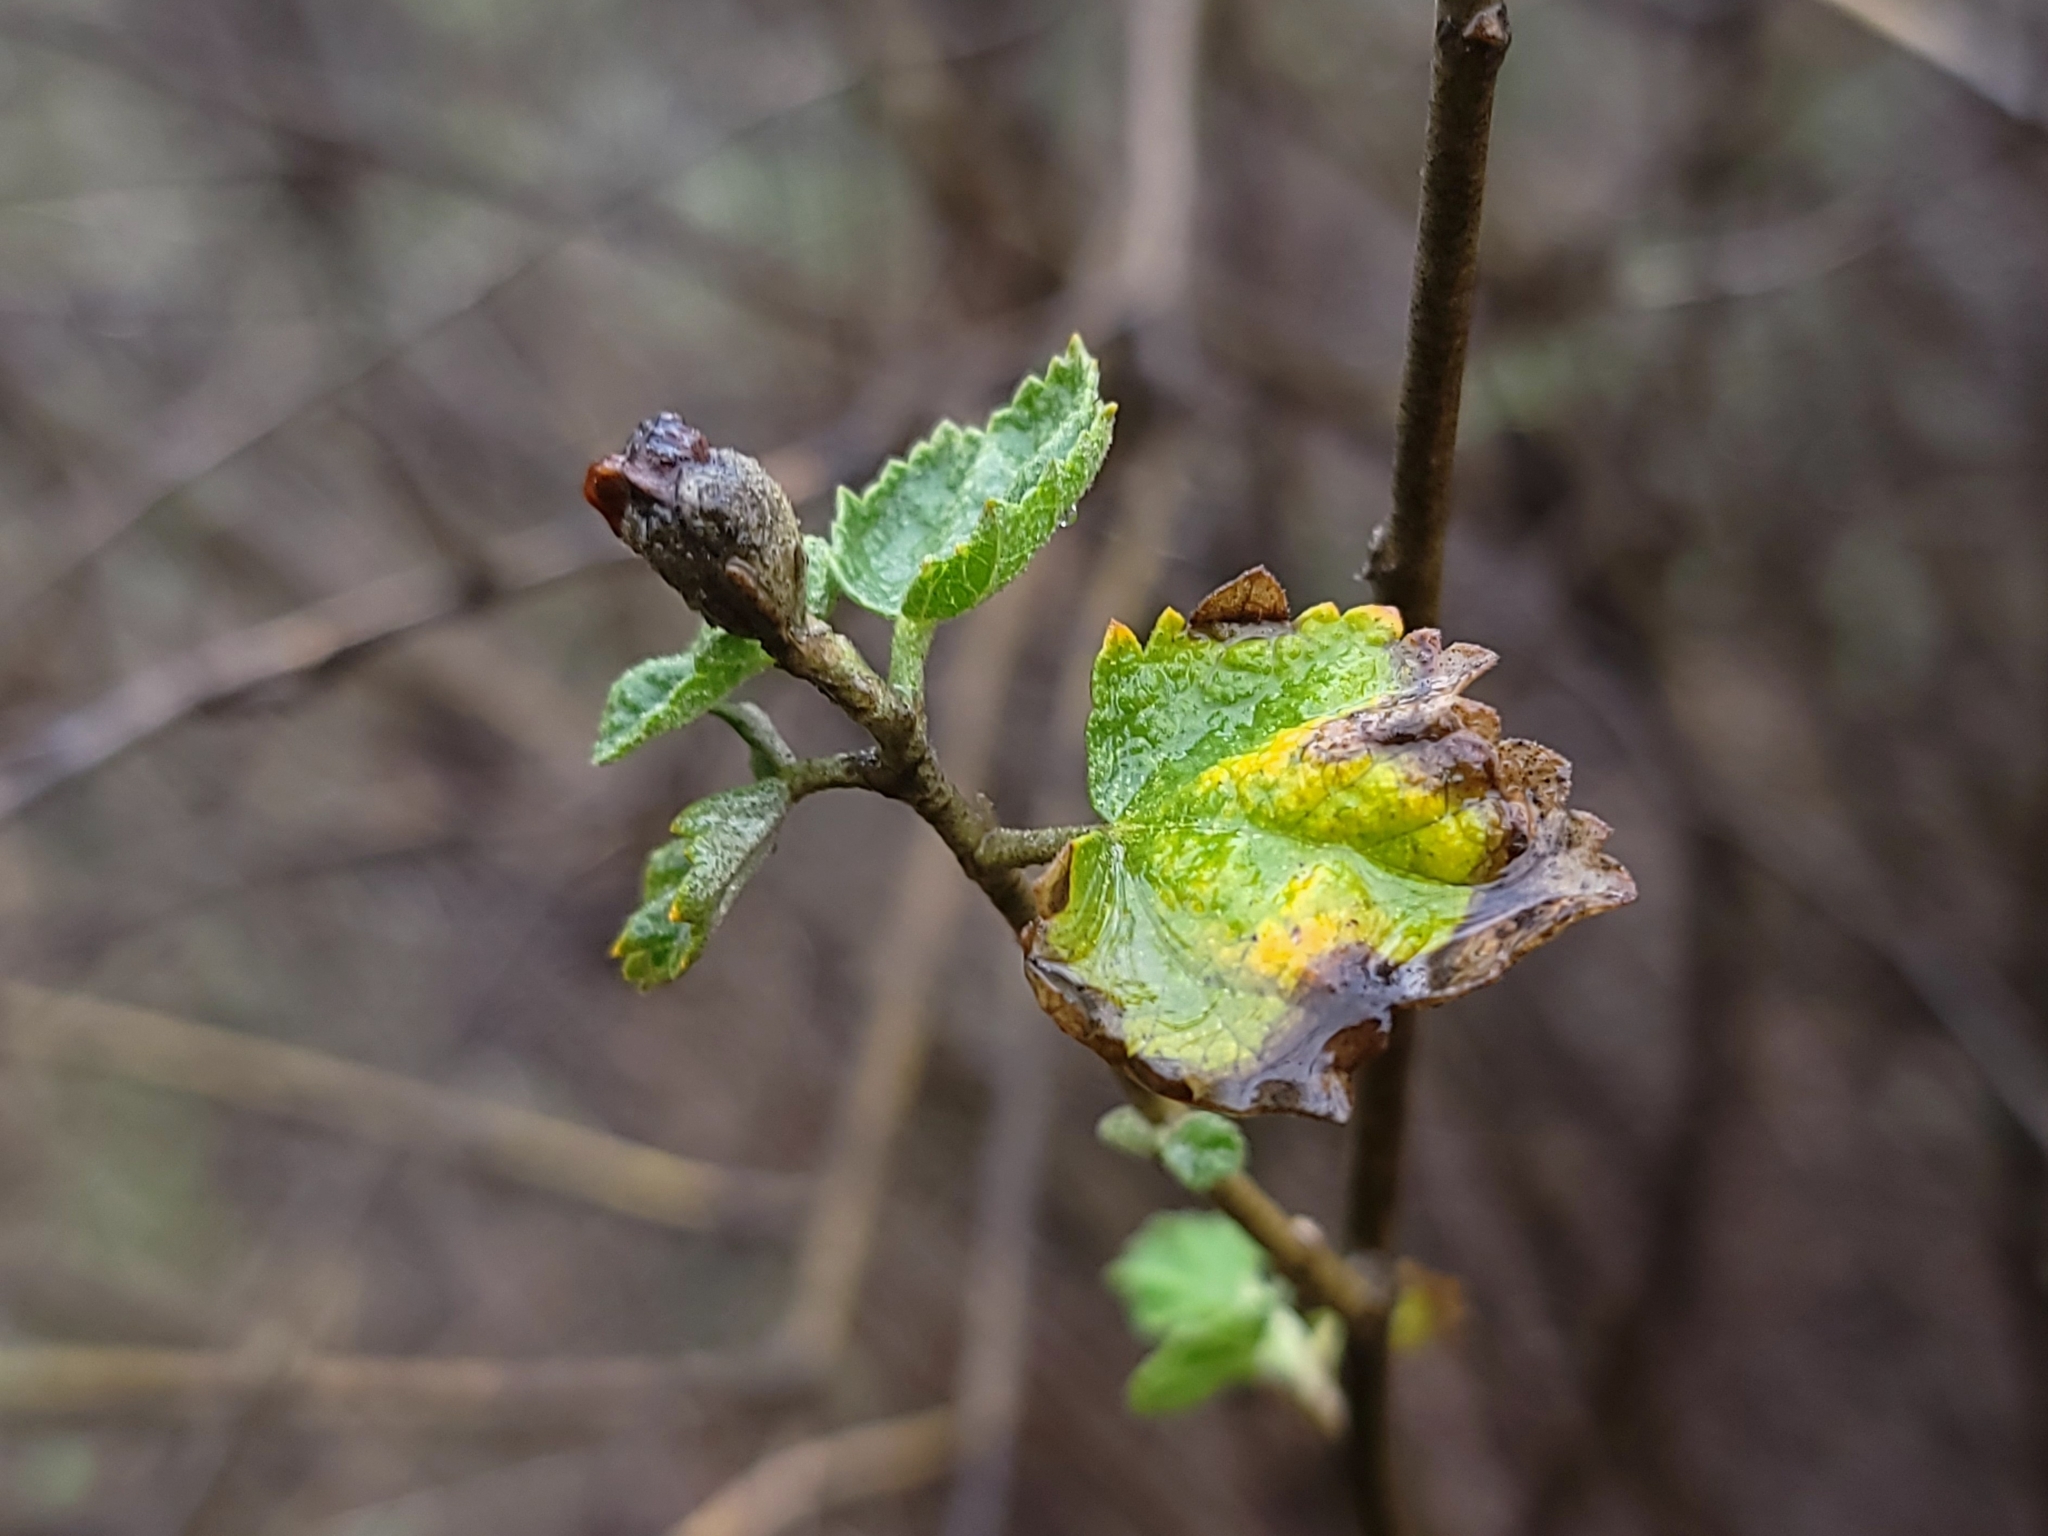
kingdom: Plantae
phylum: Tracheophyta
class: Magnoliopsida
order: Malvales
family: Malvaceae
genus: Malacothamnus
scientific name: Malacothamnus fasciculatus
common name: Sant cruz island bush-mallow
